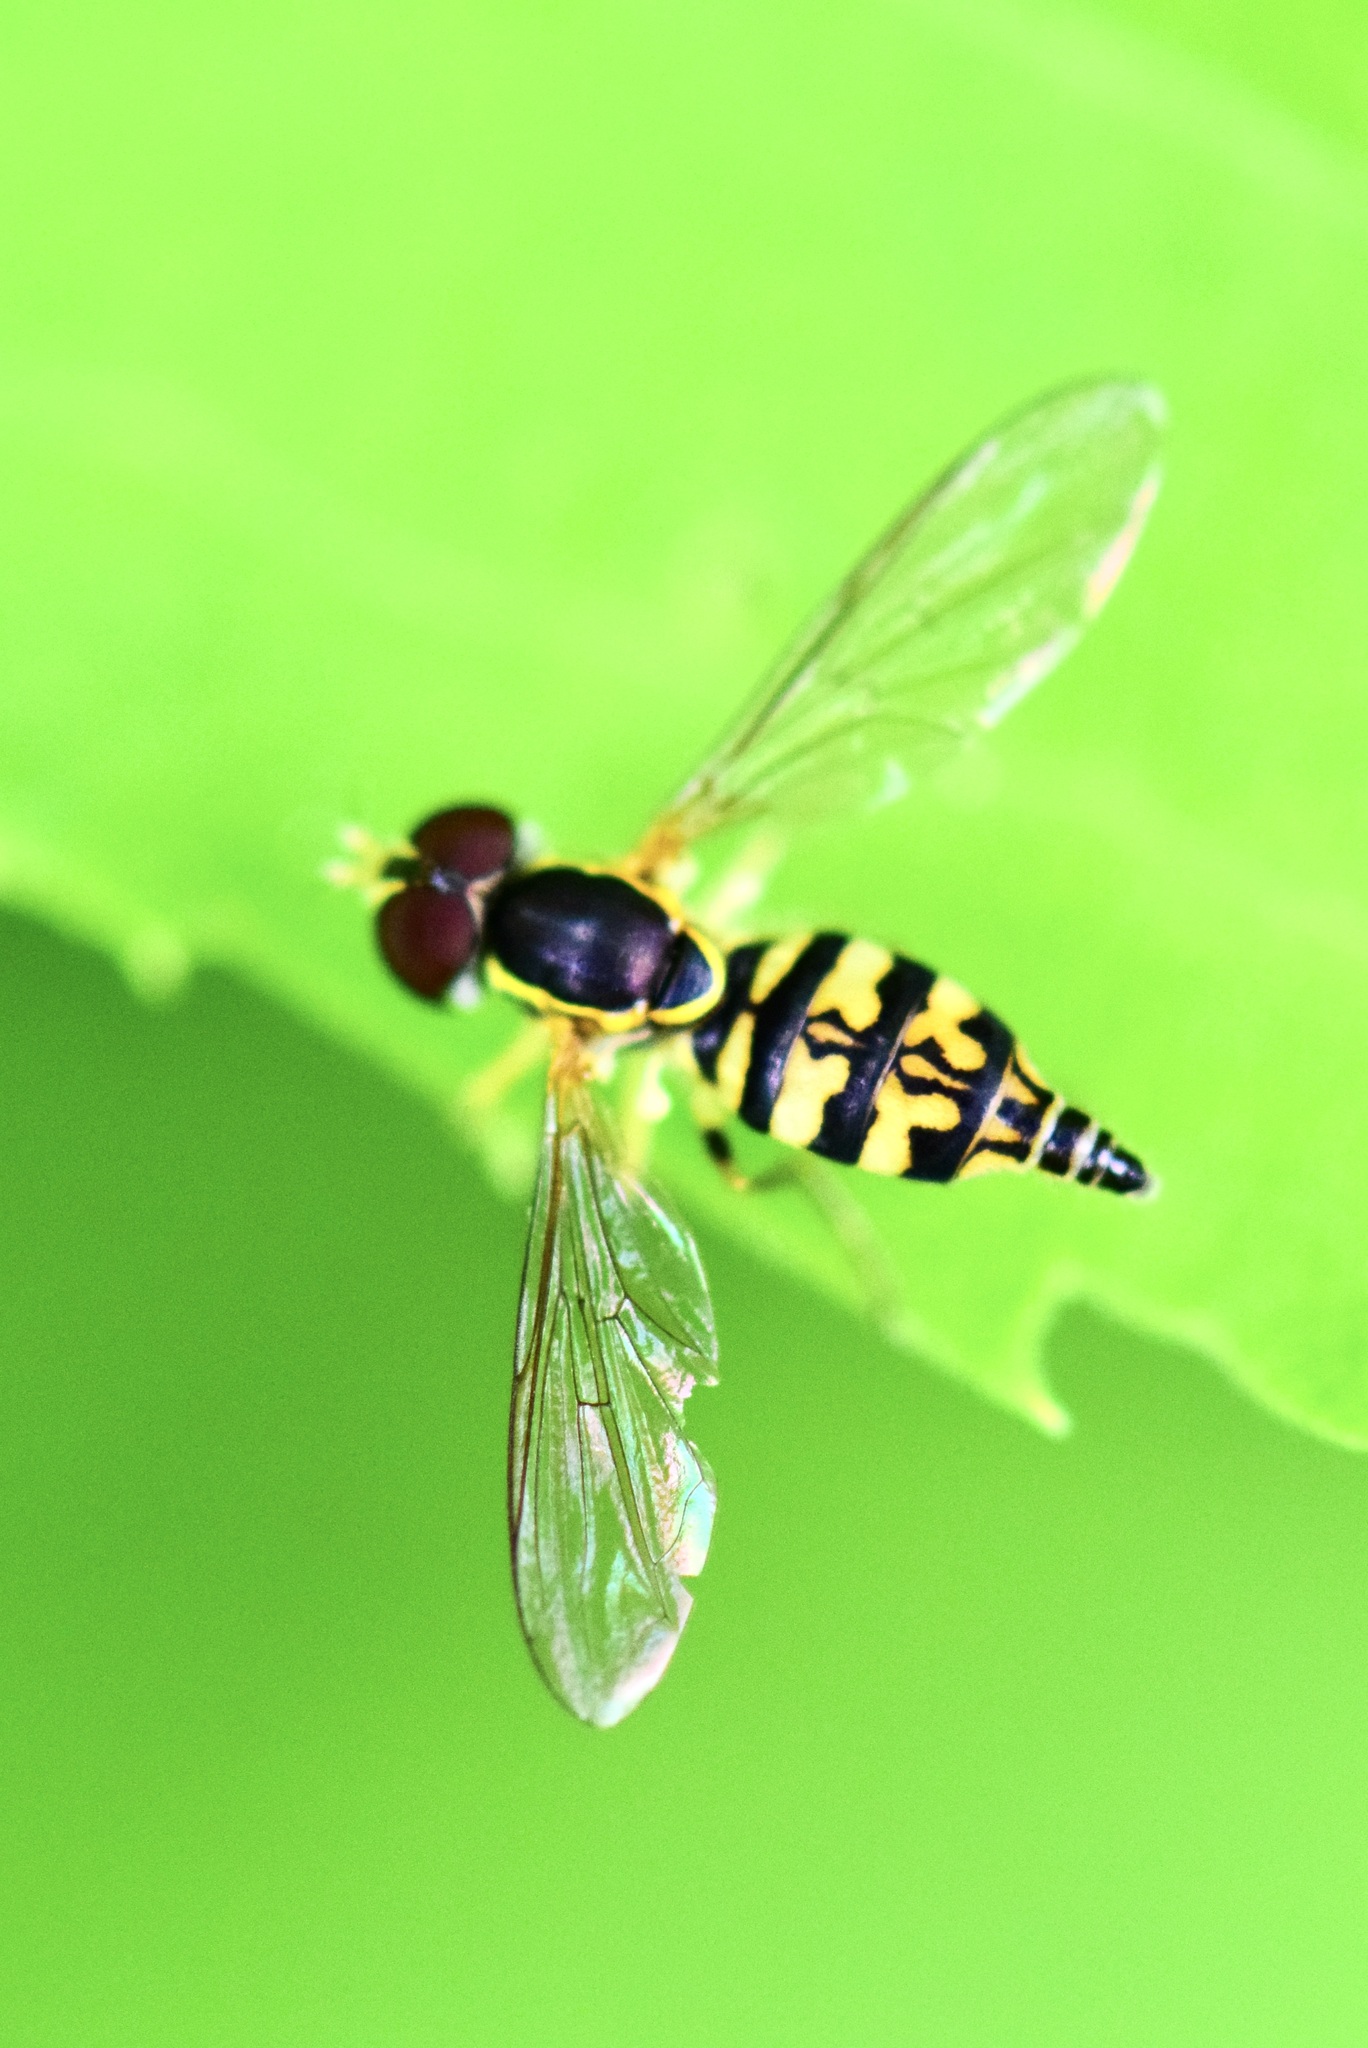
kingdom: Animalia
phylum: Arthropoda
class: Insecta
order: Diptera
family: Syrphidae
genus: Toxomerus
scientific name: Toxomerus geminatus
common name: Eastern calligrapher
